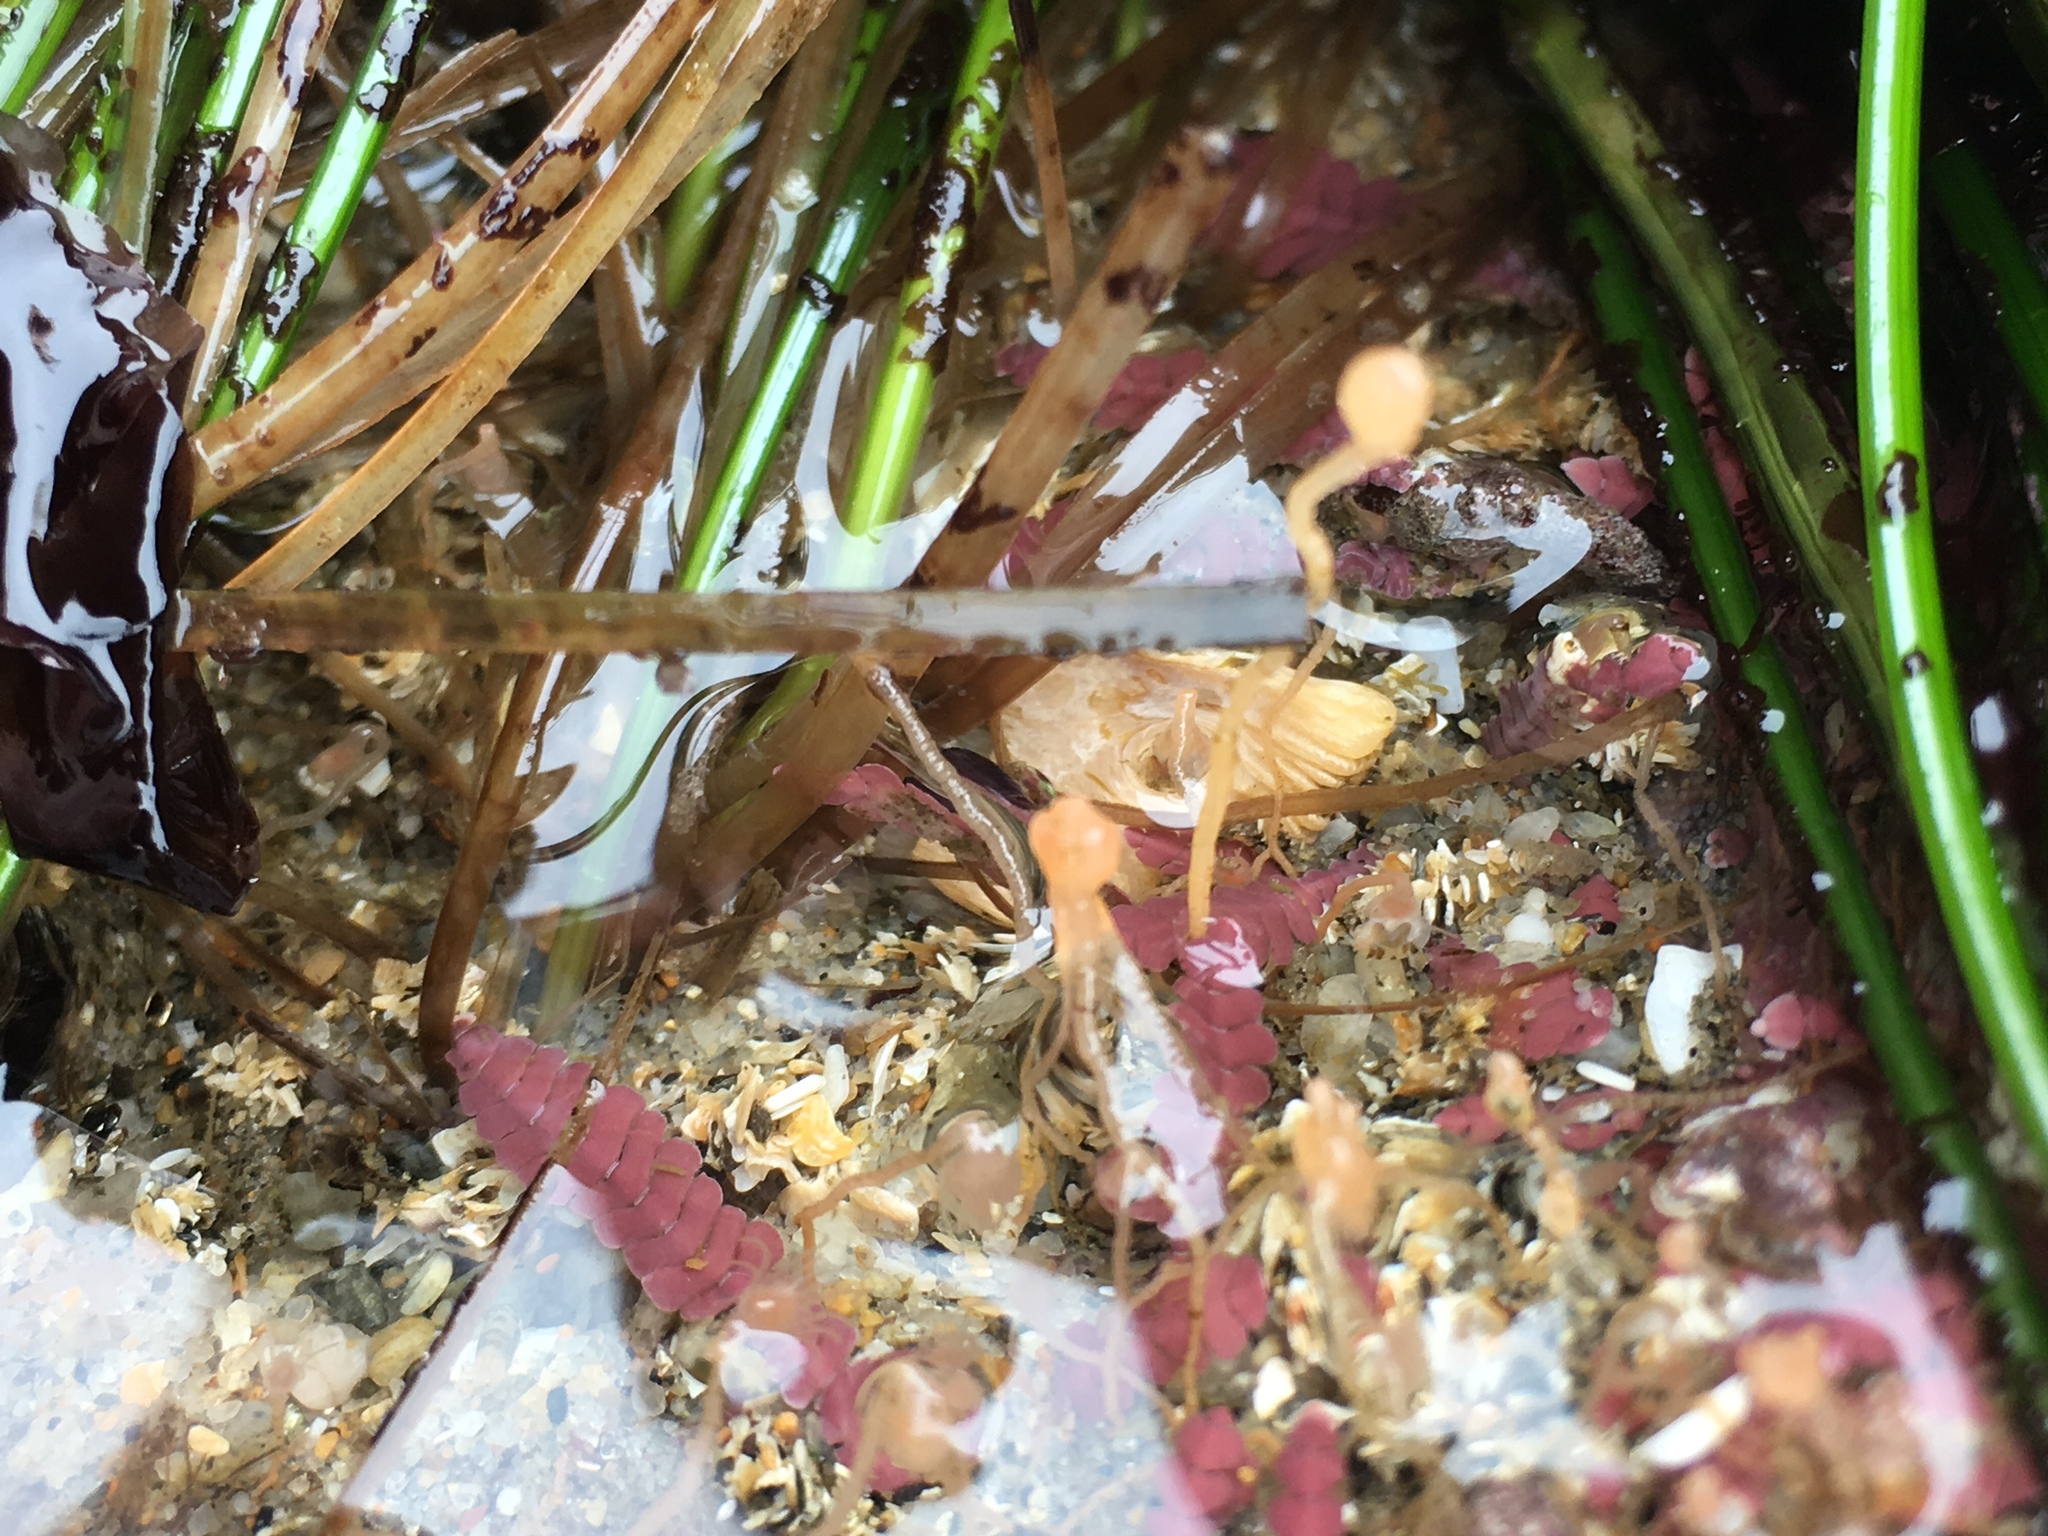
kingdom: Animalia
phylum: Cnidaria
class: Hydrozoa
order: Anthoathecata
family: Tubulariidae
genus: Ectopleura
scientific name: Ectopleura marina
